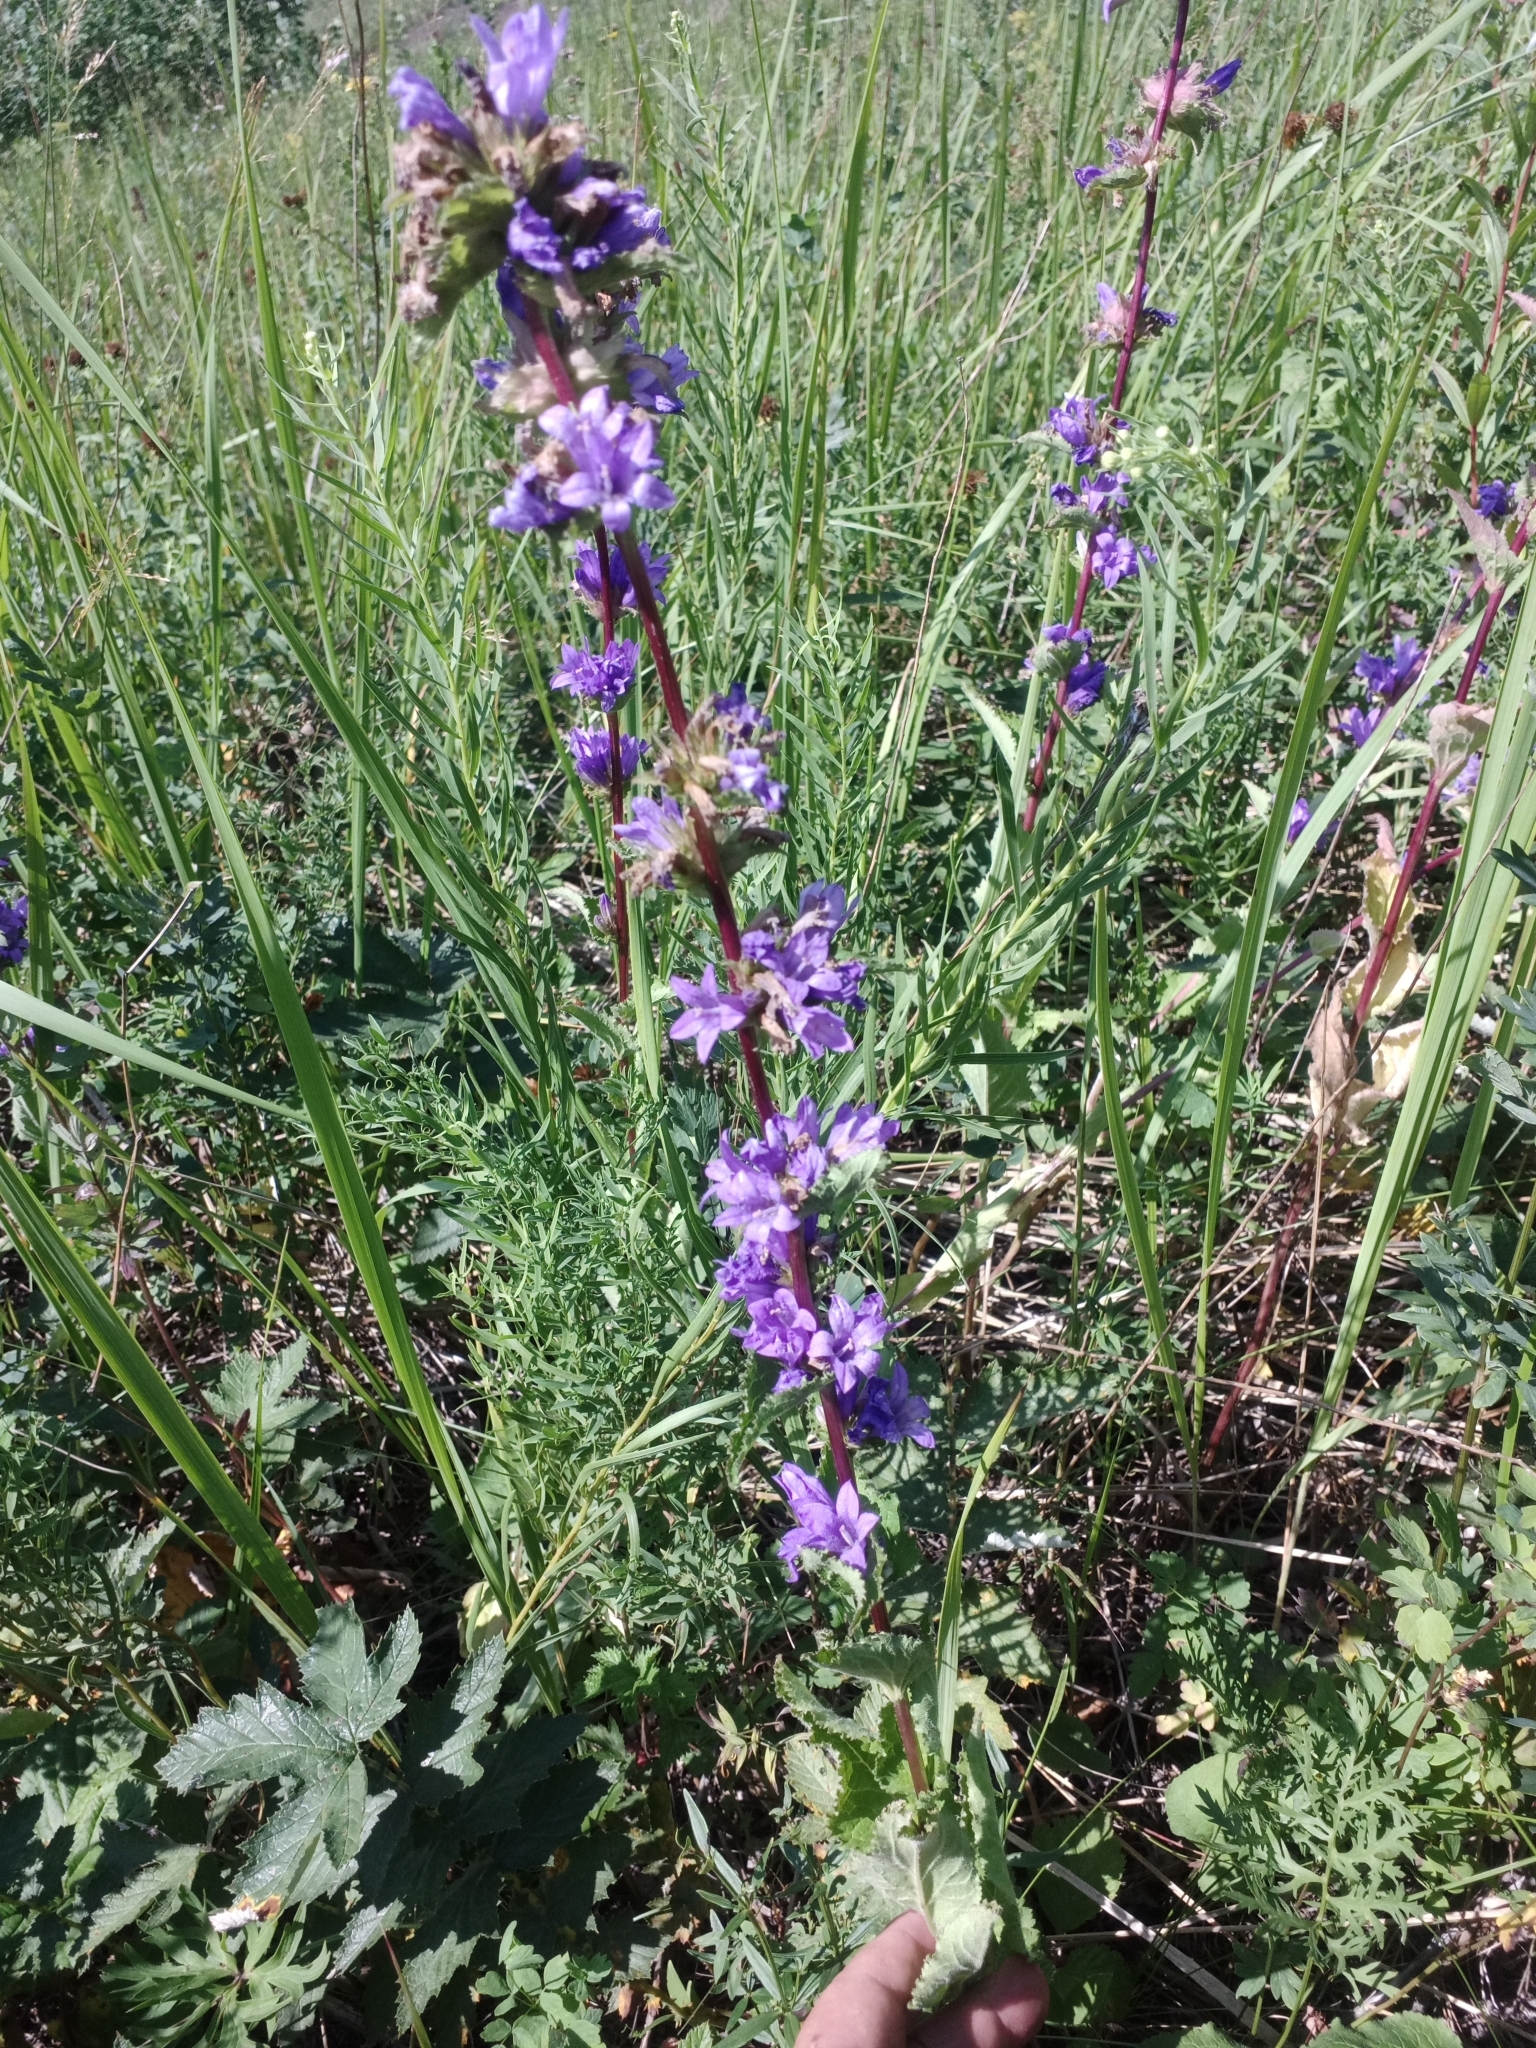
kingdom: Plantae
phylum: Tracheophyta
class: Magnoliopsida
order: Asterales
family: Campanulaceae
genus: Campanula
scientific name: Campanula glomerata
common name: Clustered bellflower
